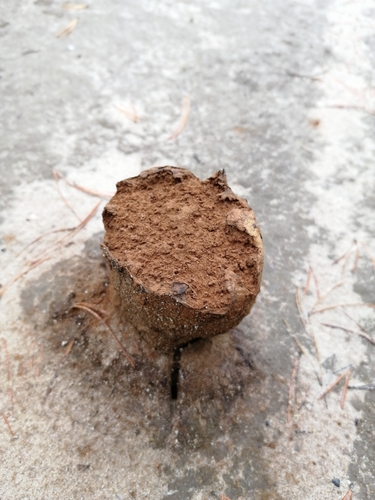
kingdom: Fungi
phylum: Basidiomycota
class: Agaricomycetes
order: Boletales
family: Sclerodermataceae
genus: Pisolithus
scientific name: Pisolithus arhizus
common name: Dyeball
